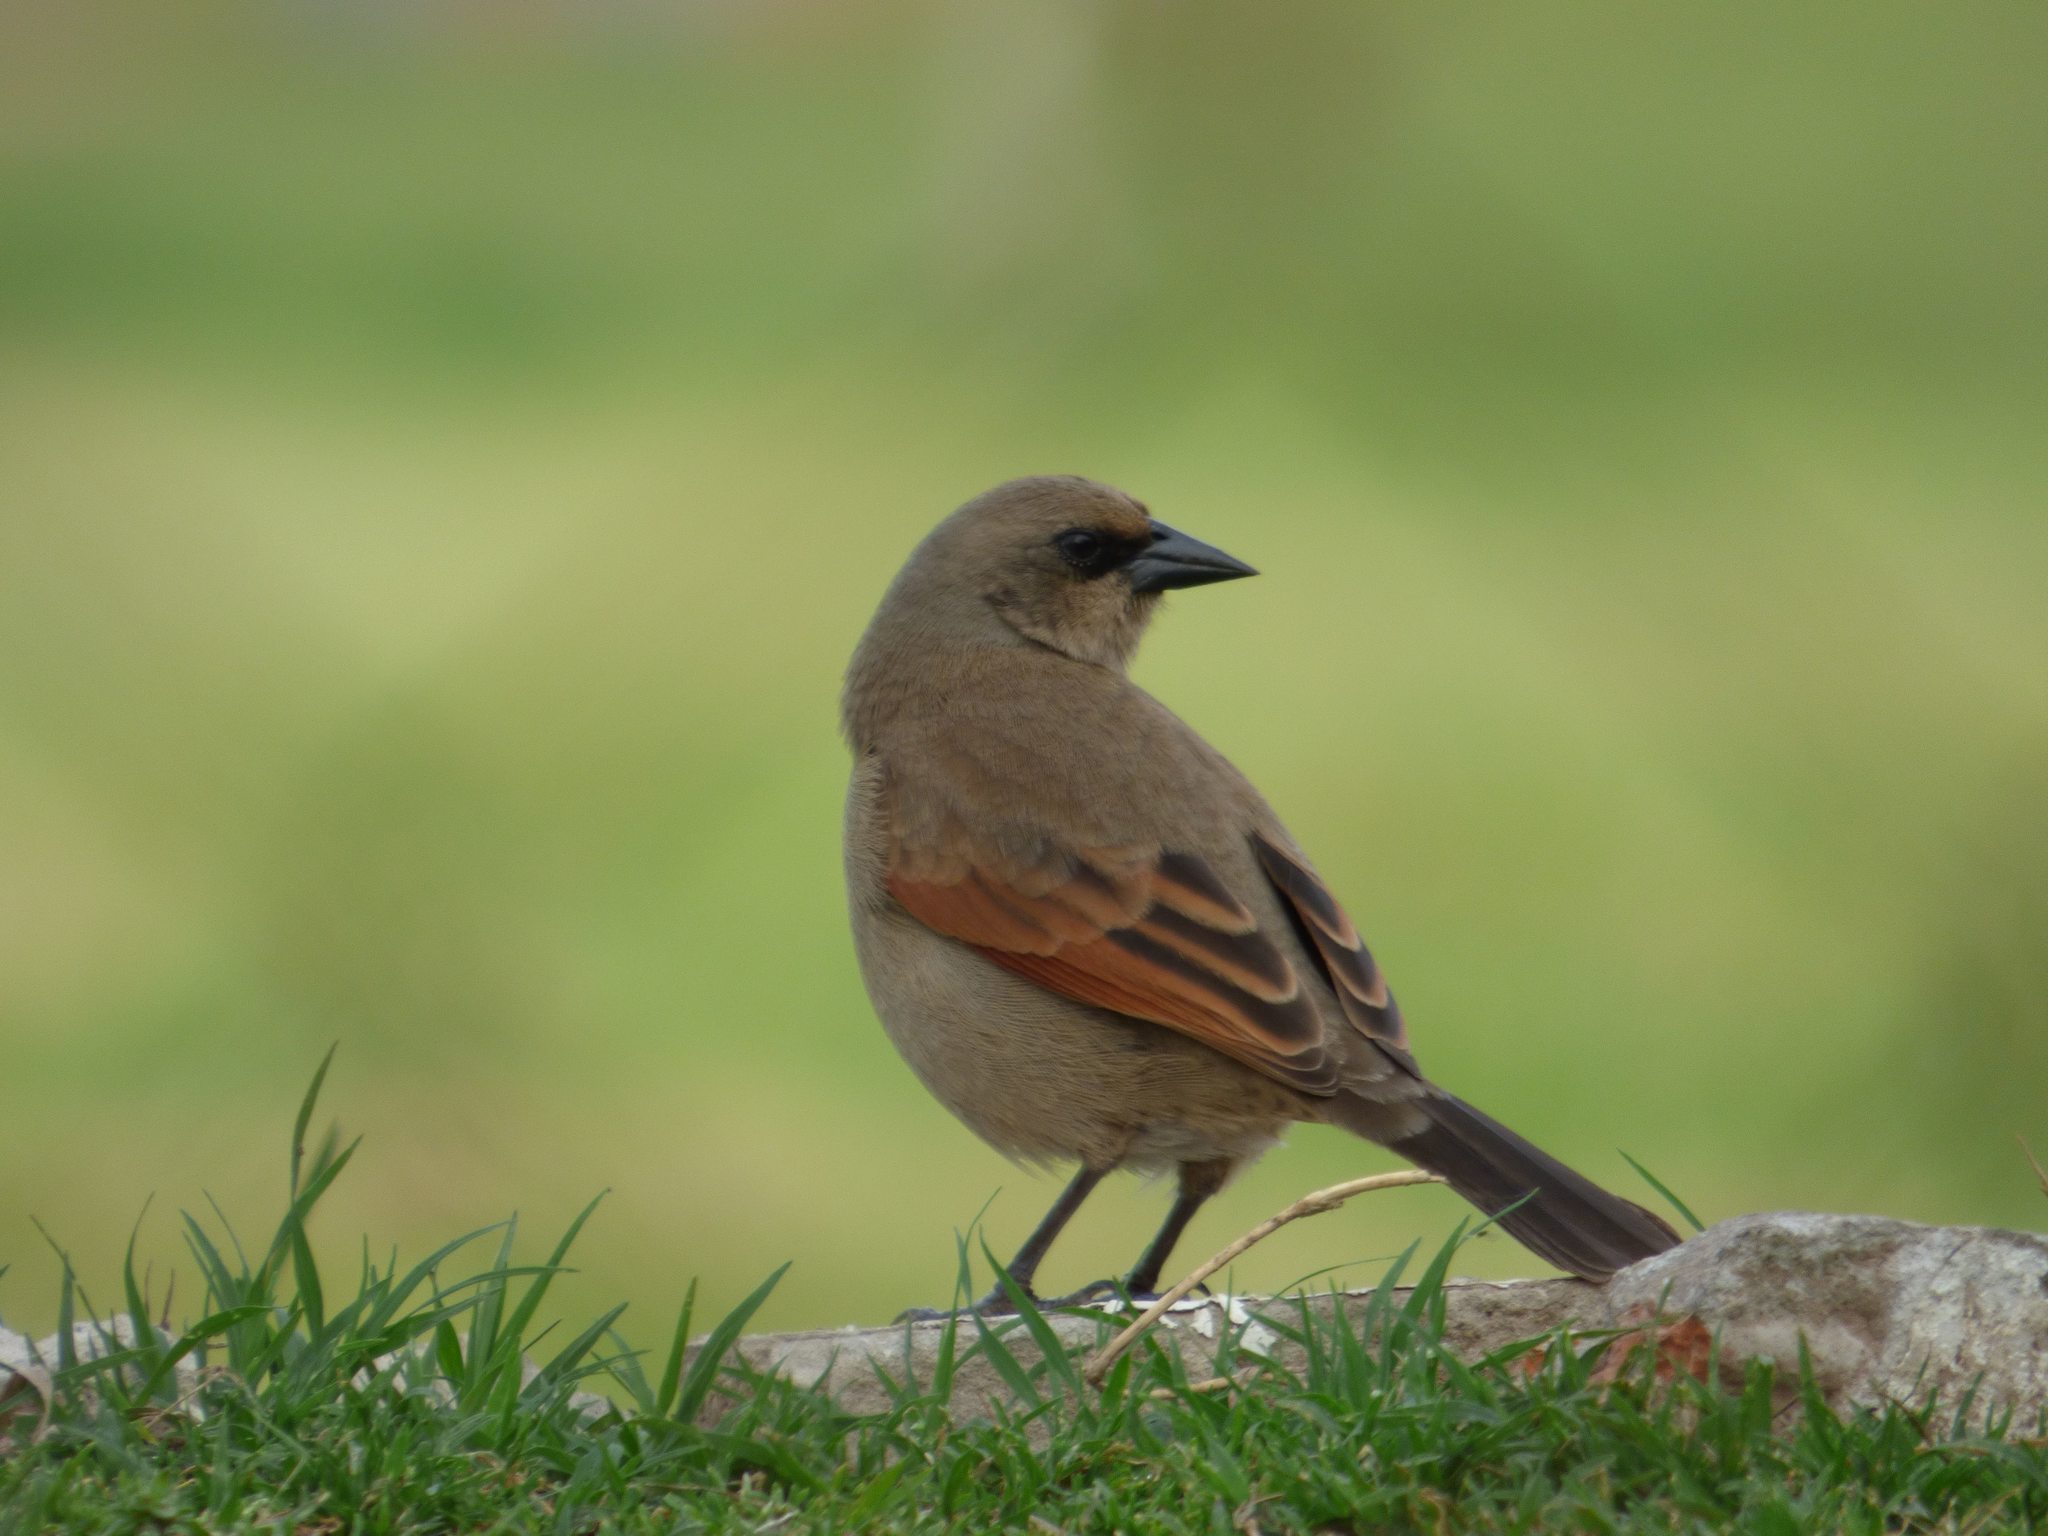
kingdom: Animalia
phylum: Chordata
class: Aves
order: Passeriformes
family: Icteridae
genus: Agelaioides
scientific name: Agelaioides badius
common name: Baywing
